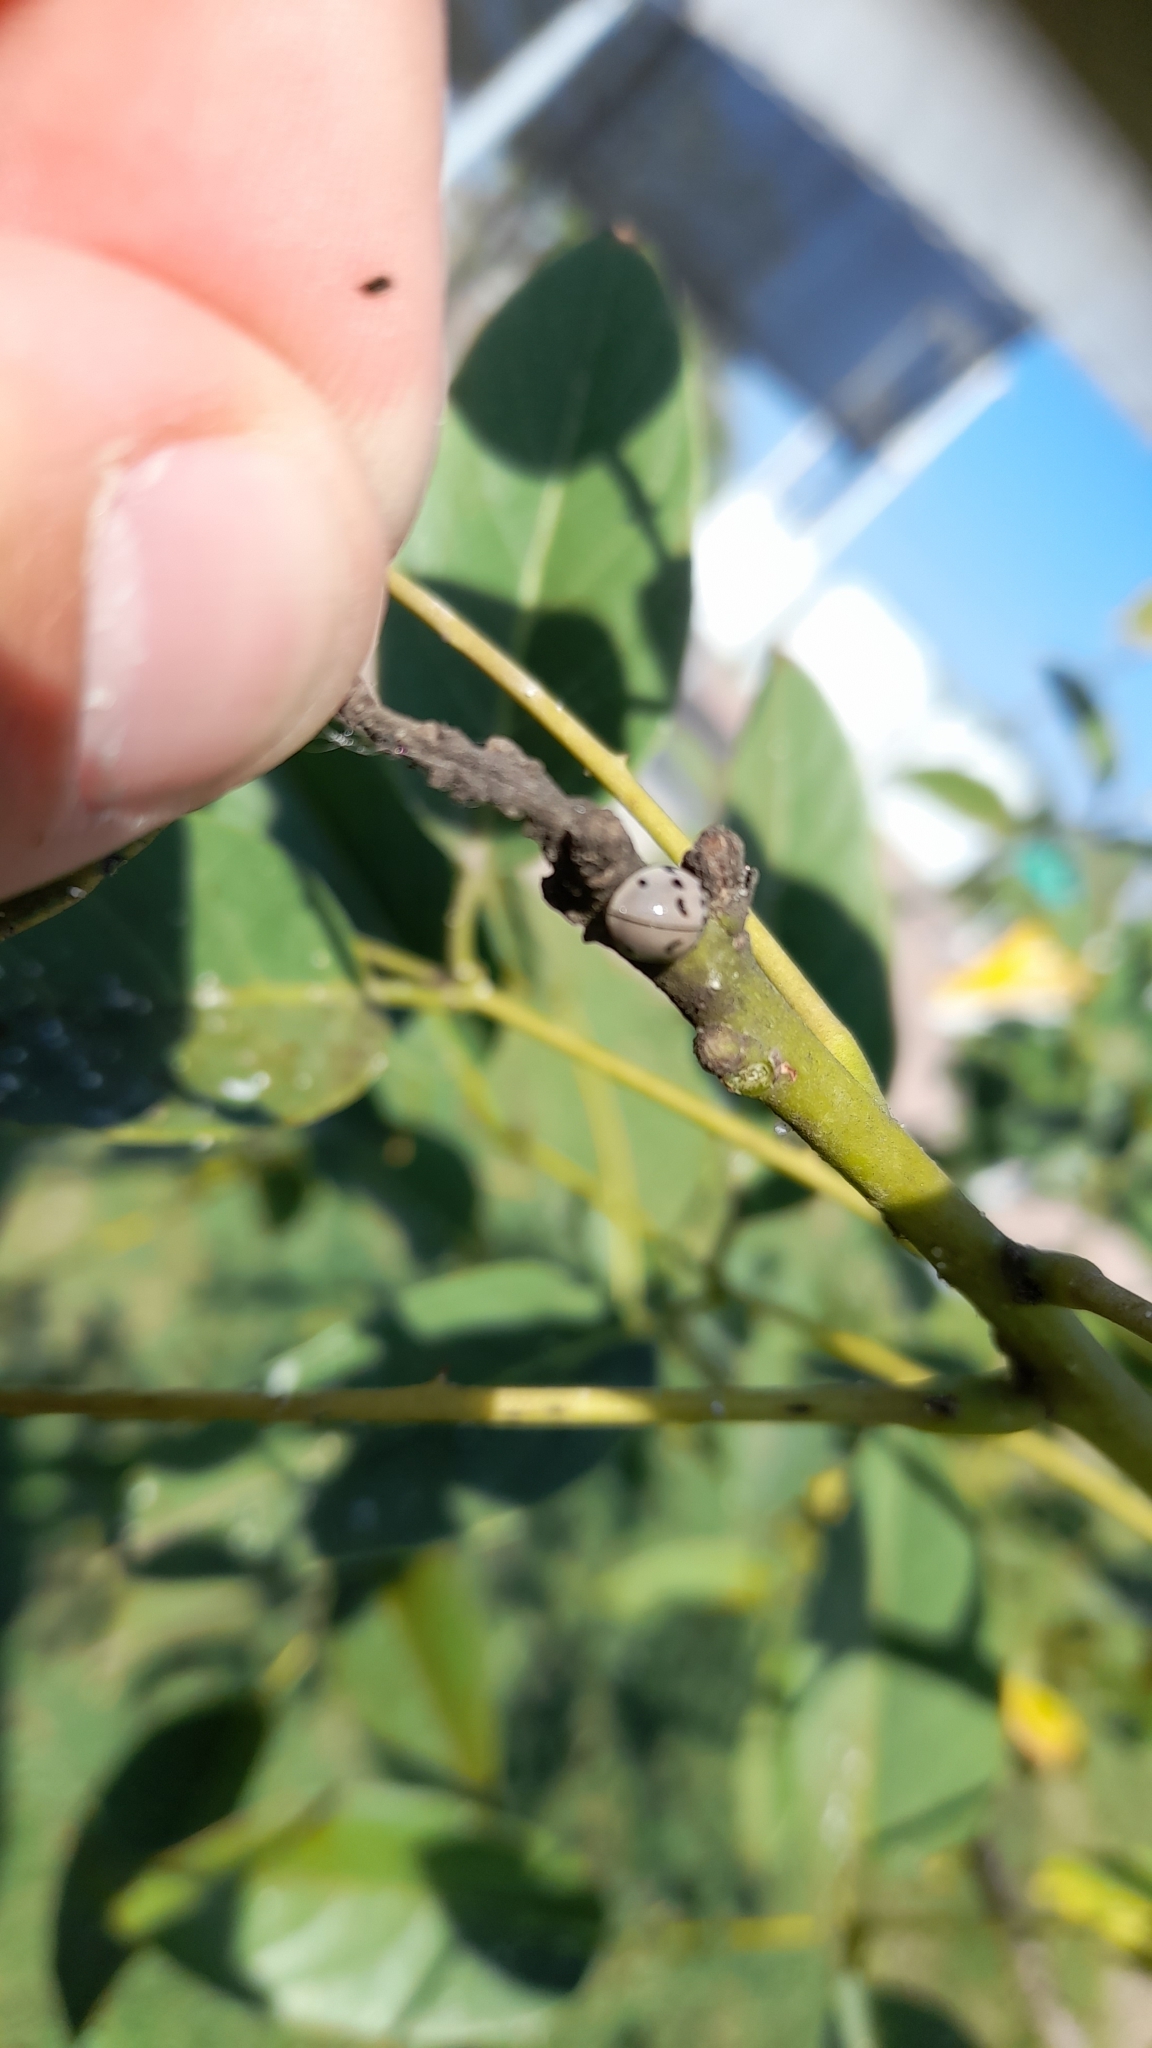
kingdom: Animalia
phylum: Arthropoda
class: Insecta
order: Coleoptera
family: Coccinellidae
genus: Olla
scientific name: Olla v-nigrum
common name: Ashy gray lady beetle
